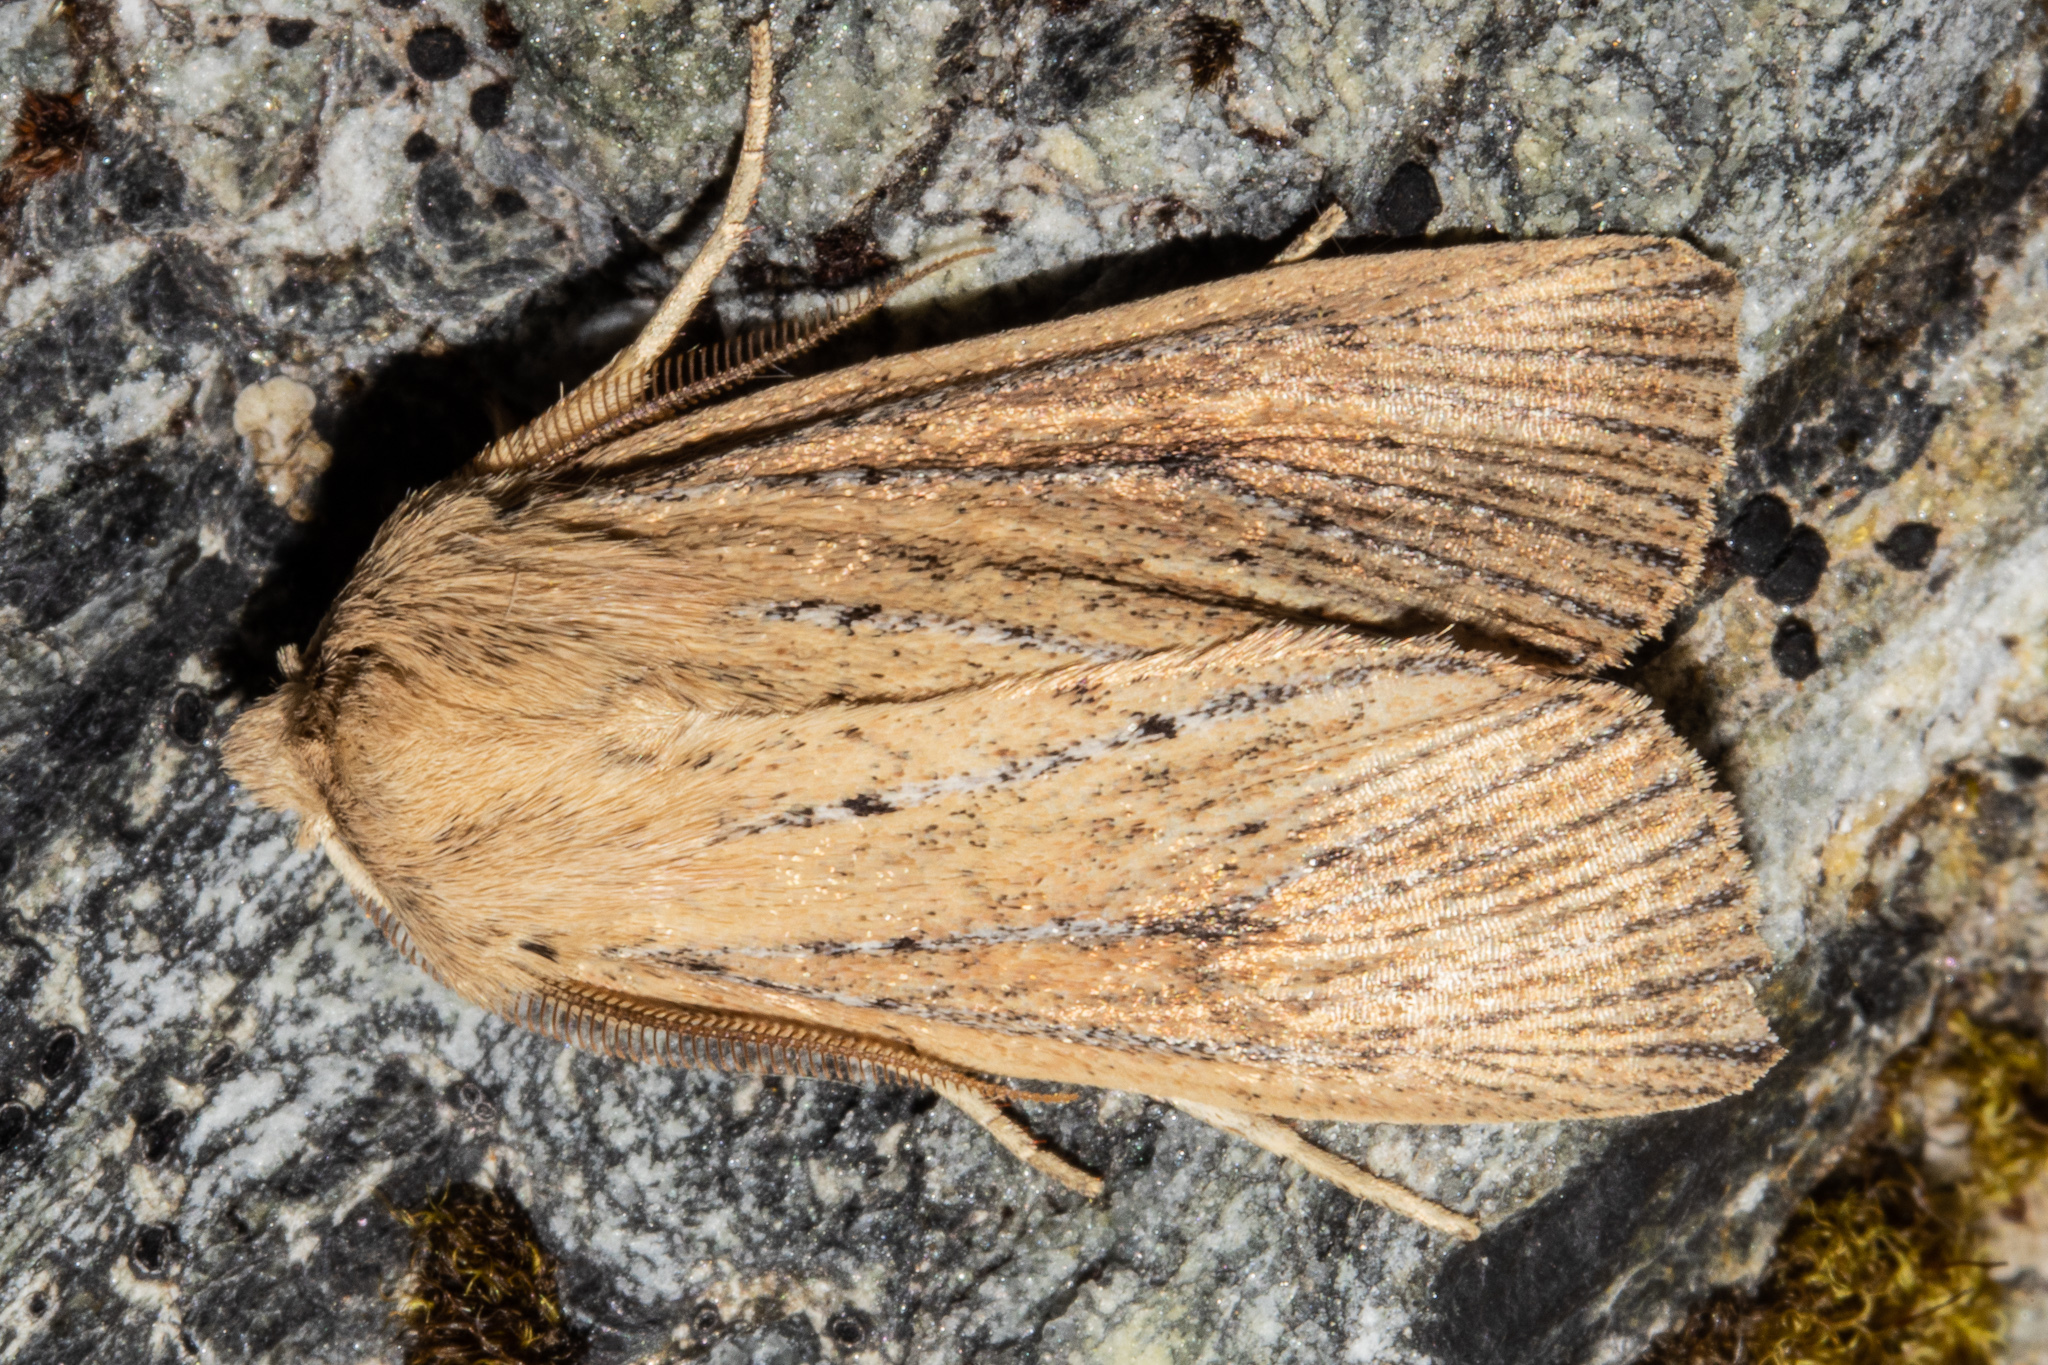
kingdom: Animalia
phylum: Arthropoda
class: Insecta
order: Lepidoptera
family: Noctuidae
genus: Ichneutica
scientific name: Ichneutica cornuta
